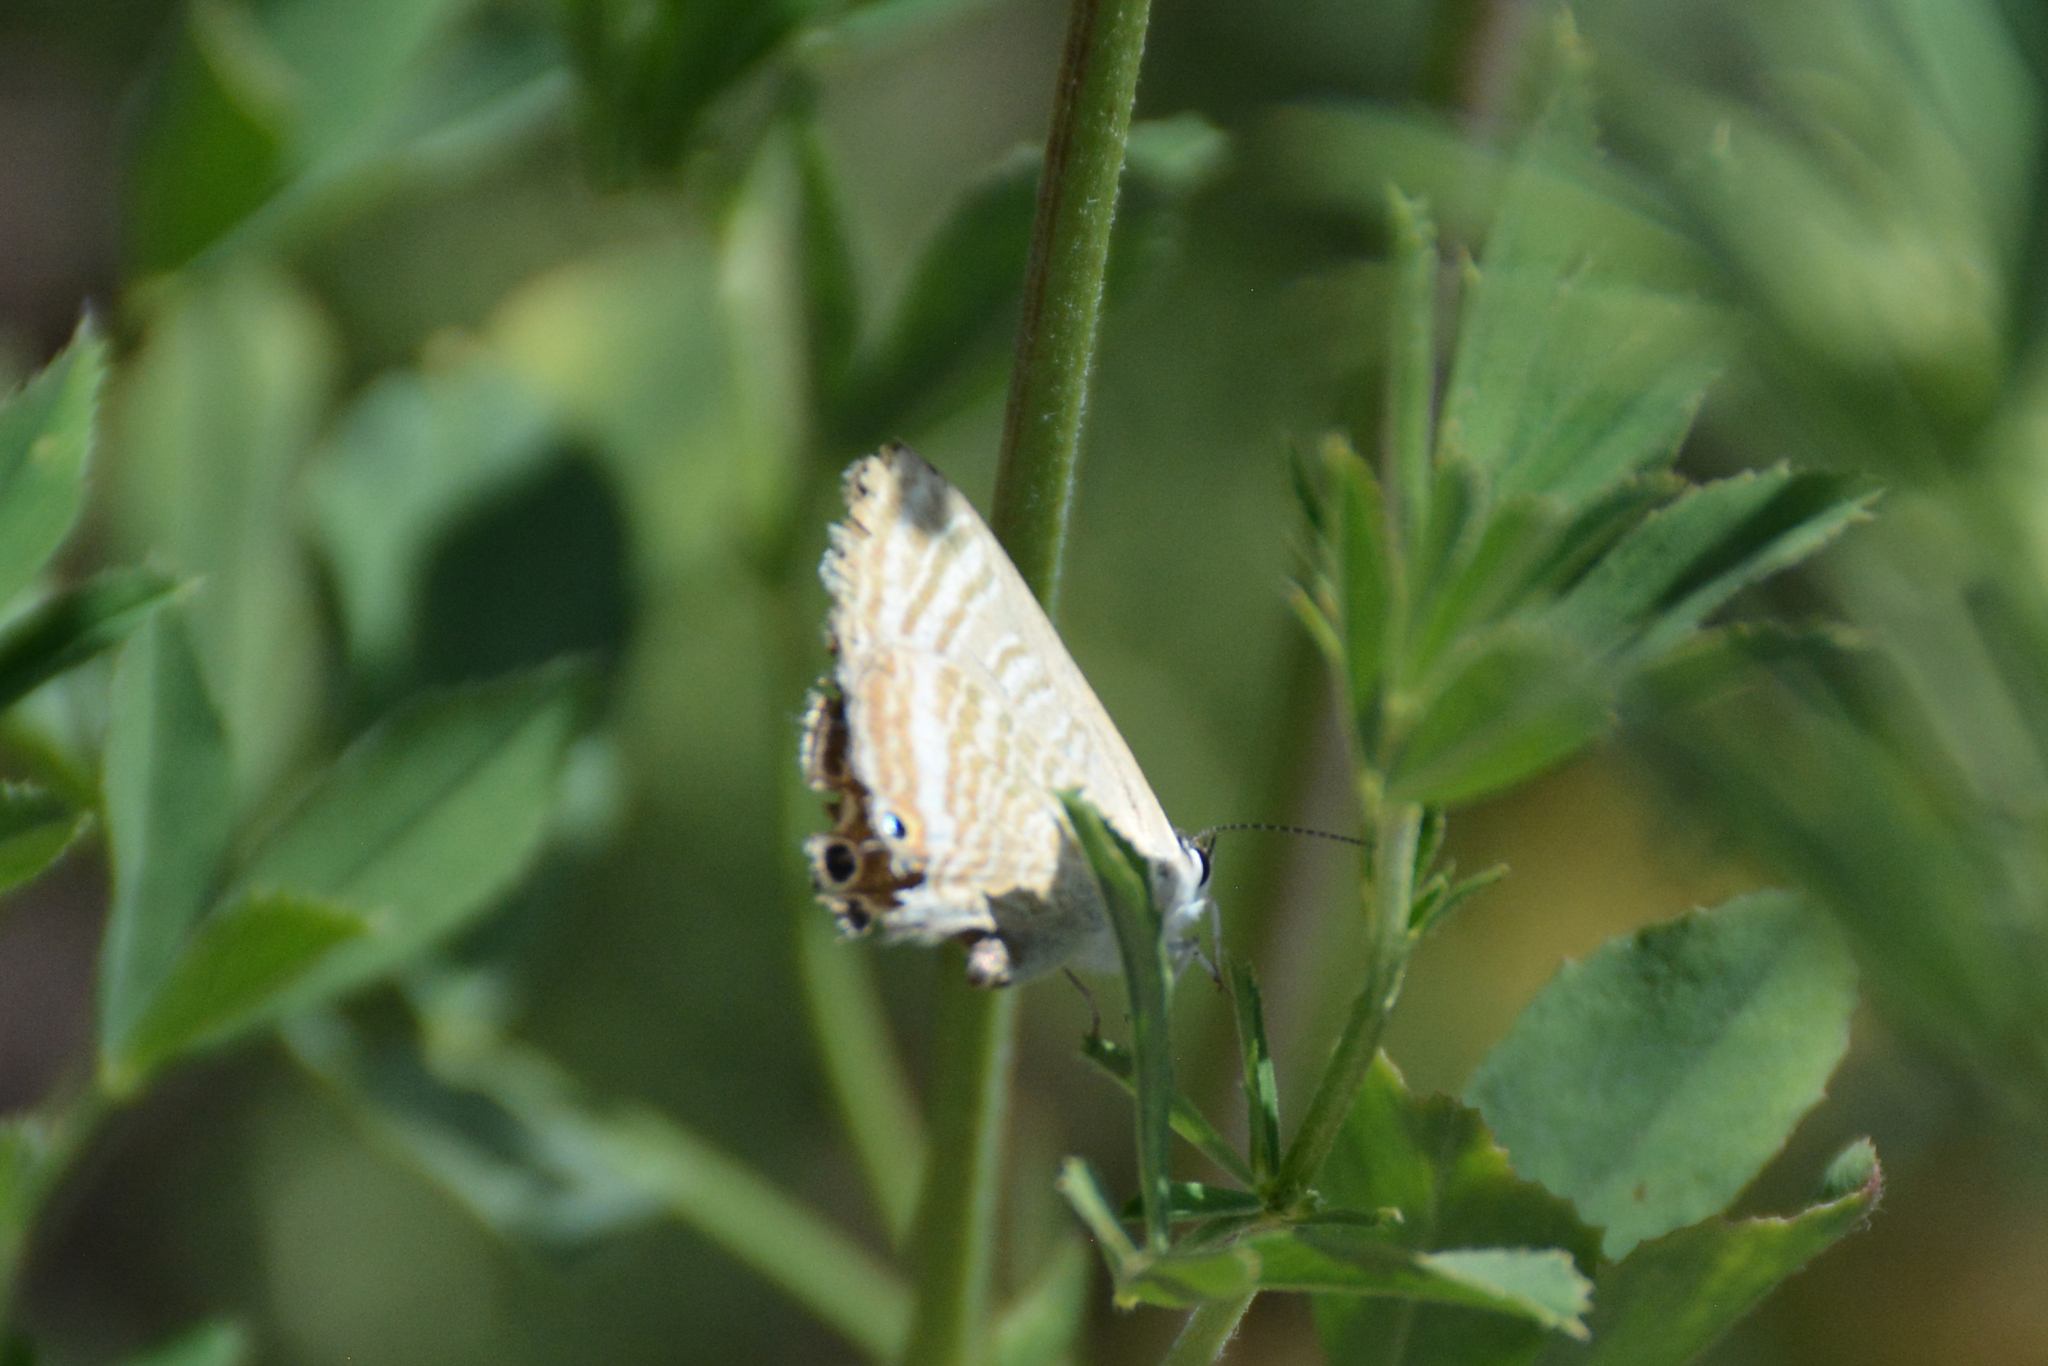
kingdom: Animalia
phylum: Arthropoda
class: Insecta
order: Lepidoptera
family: Lycaenidae
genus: Lampides
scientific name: Lampides boeticus
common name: Long-tailed blue
